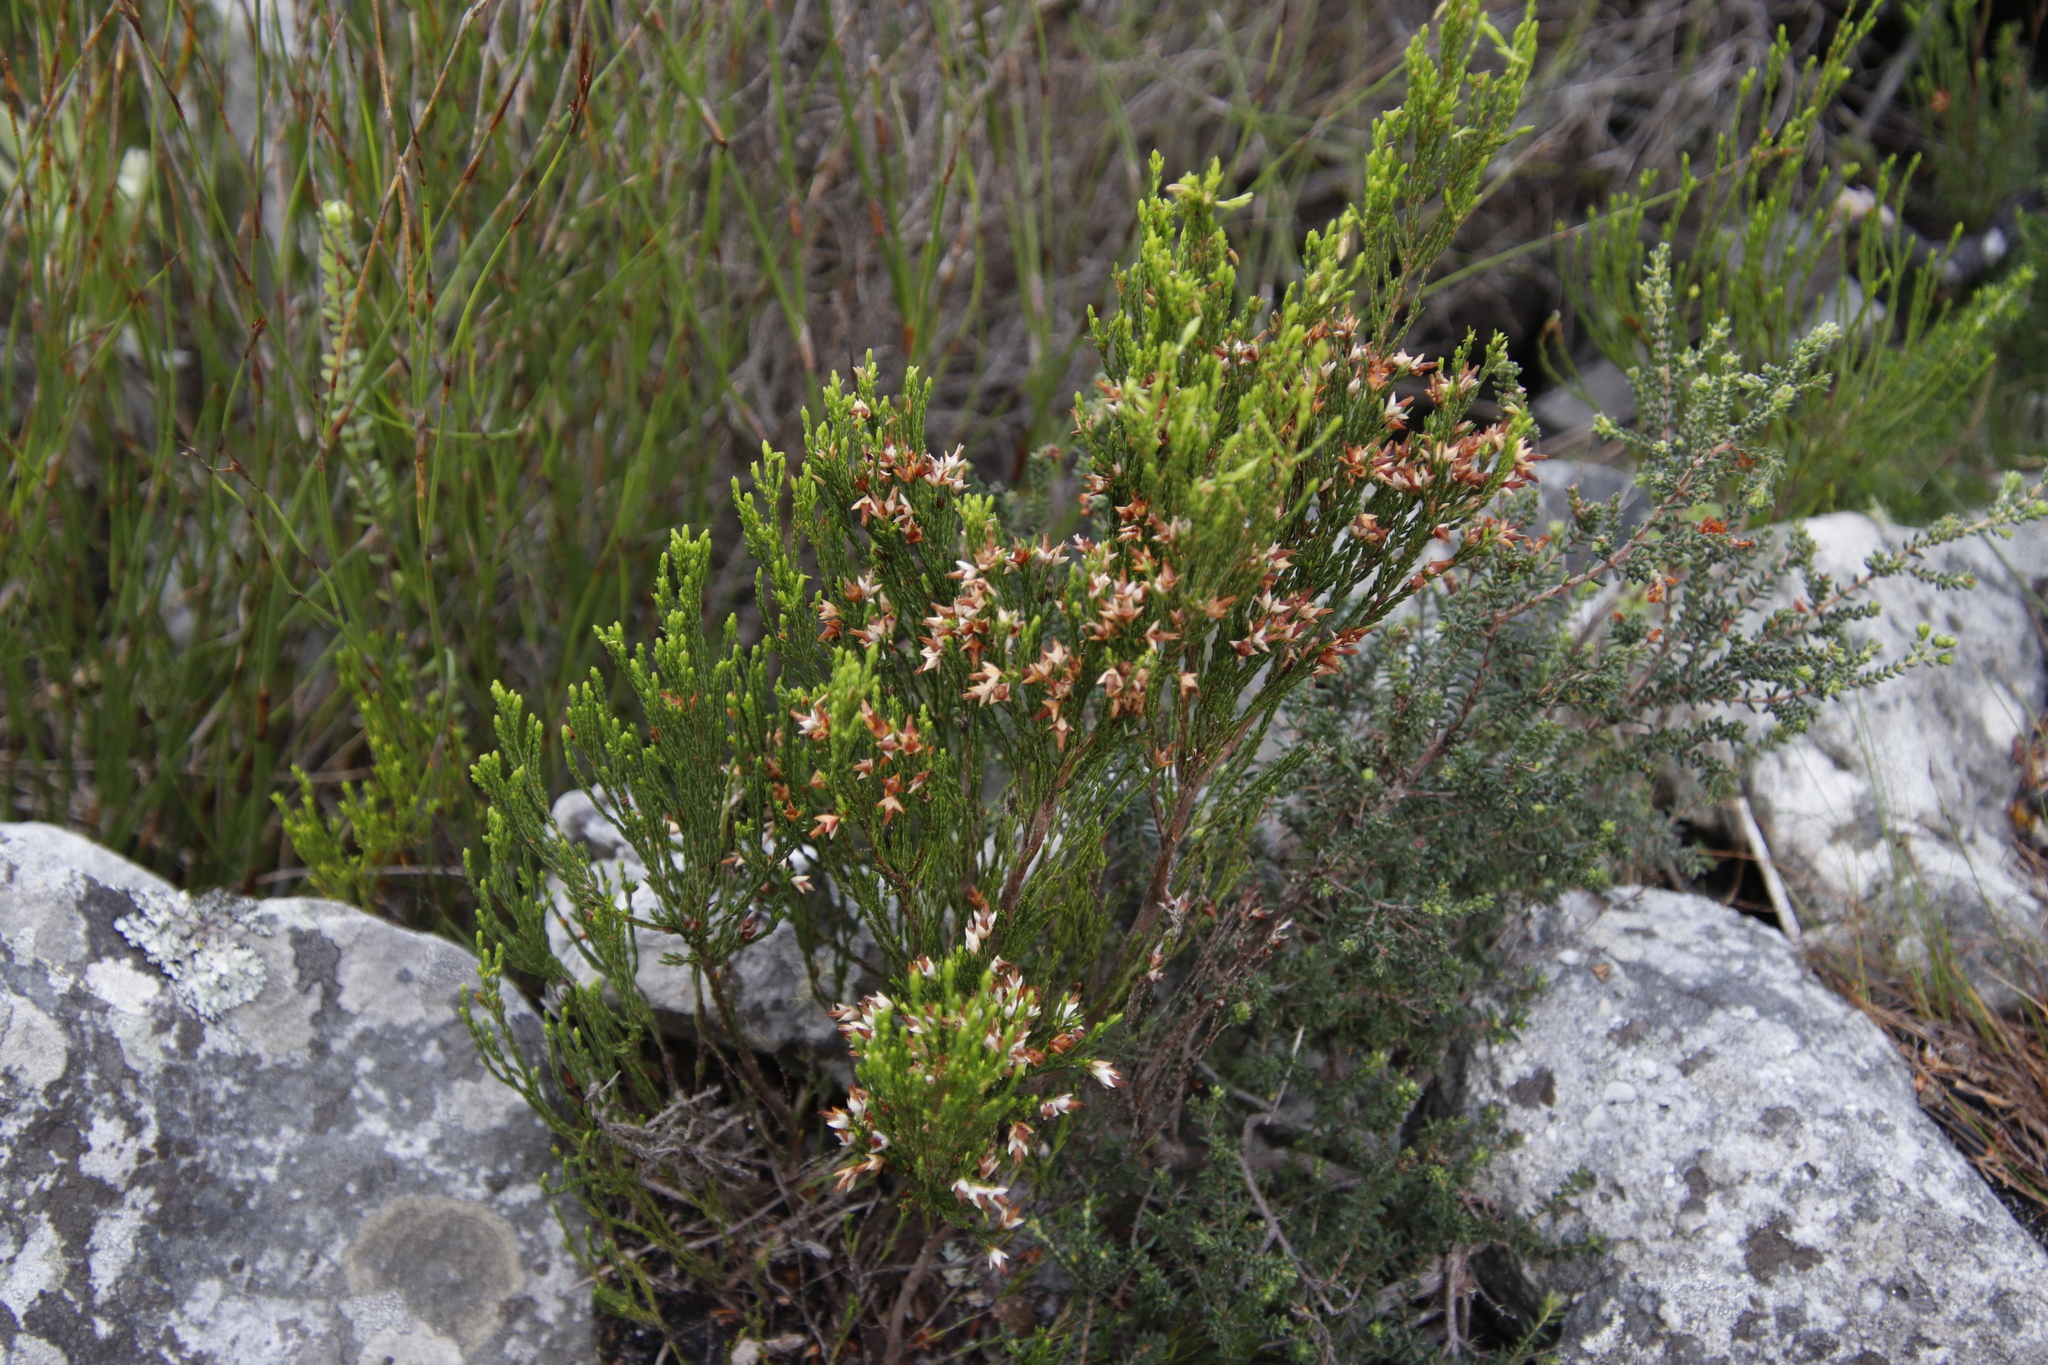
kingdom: Plantae
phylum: Tracheophyta
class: Magnoliopsida
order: Ericales
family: Ericaceae
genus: Erica
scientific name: Erica lutea
